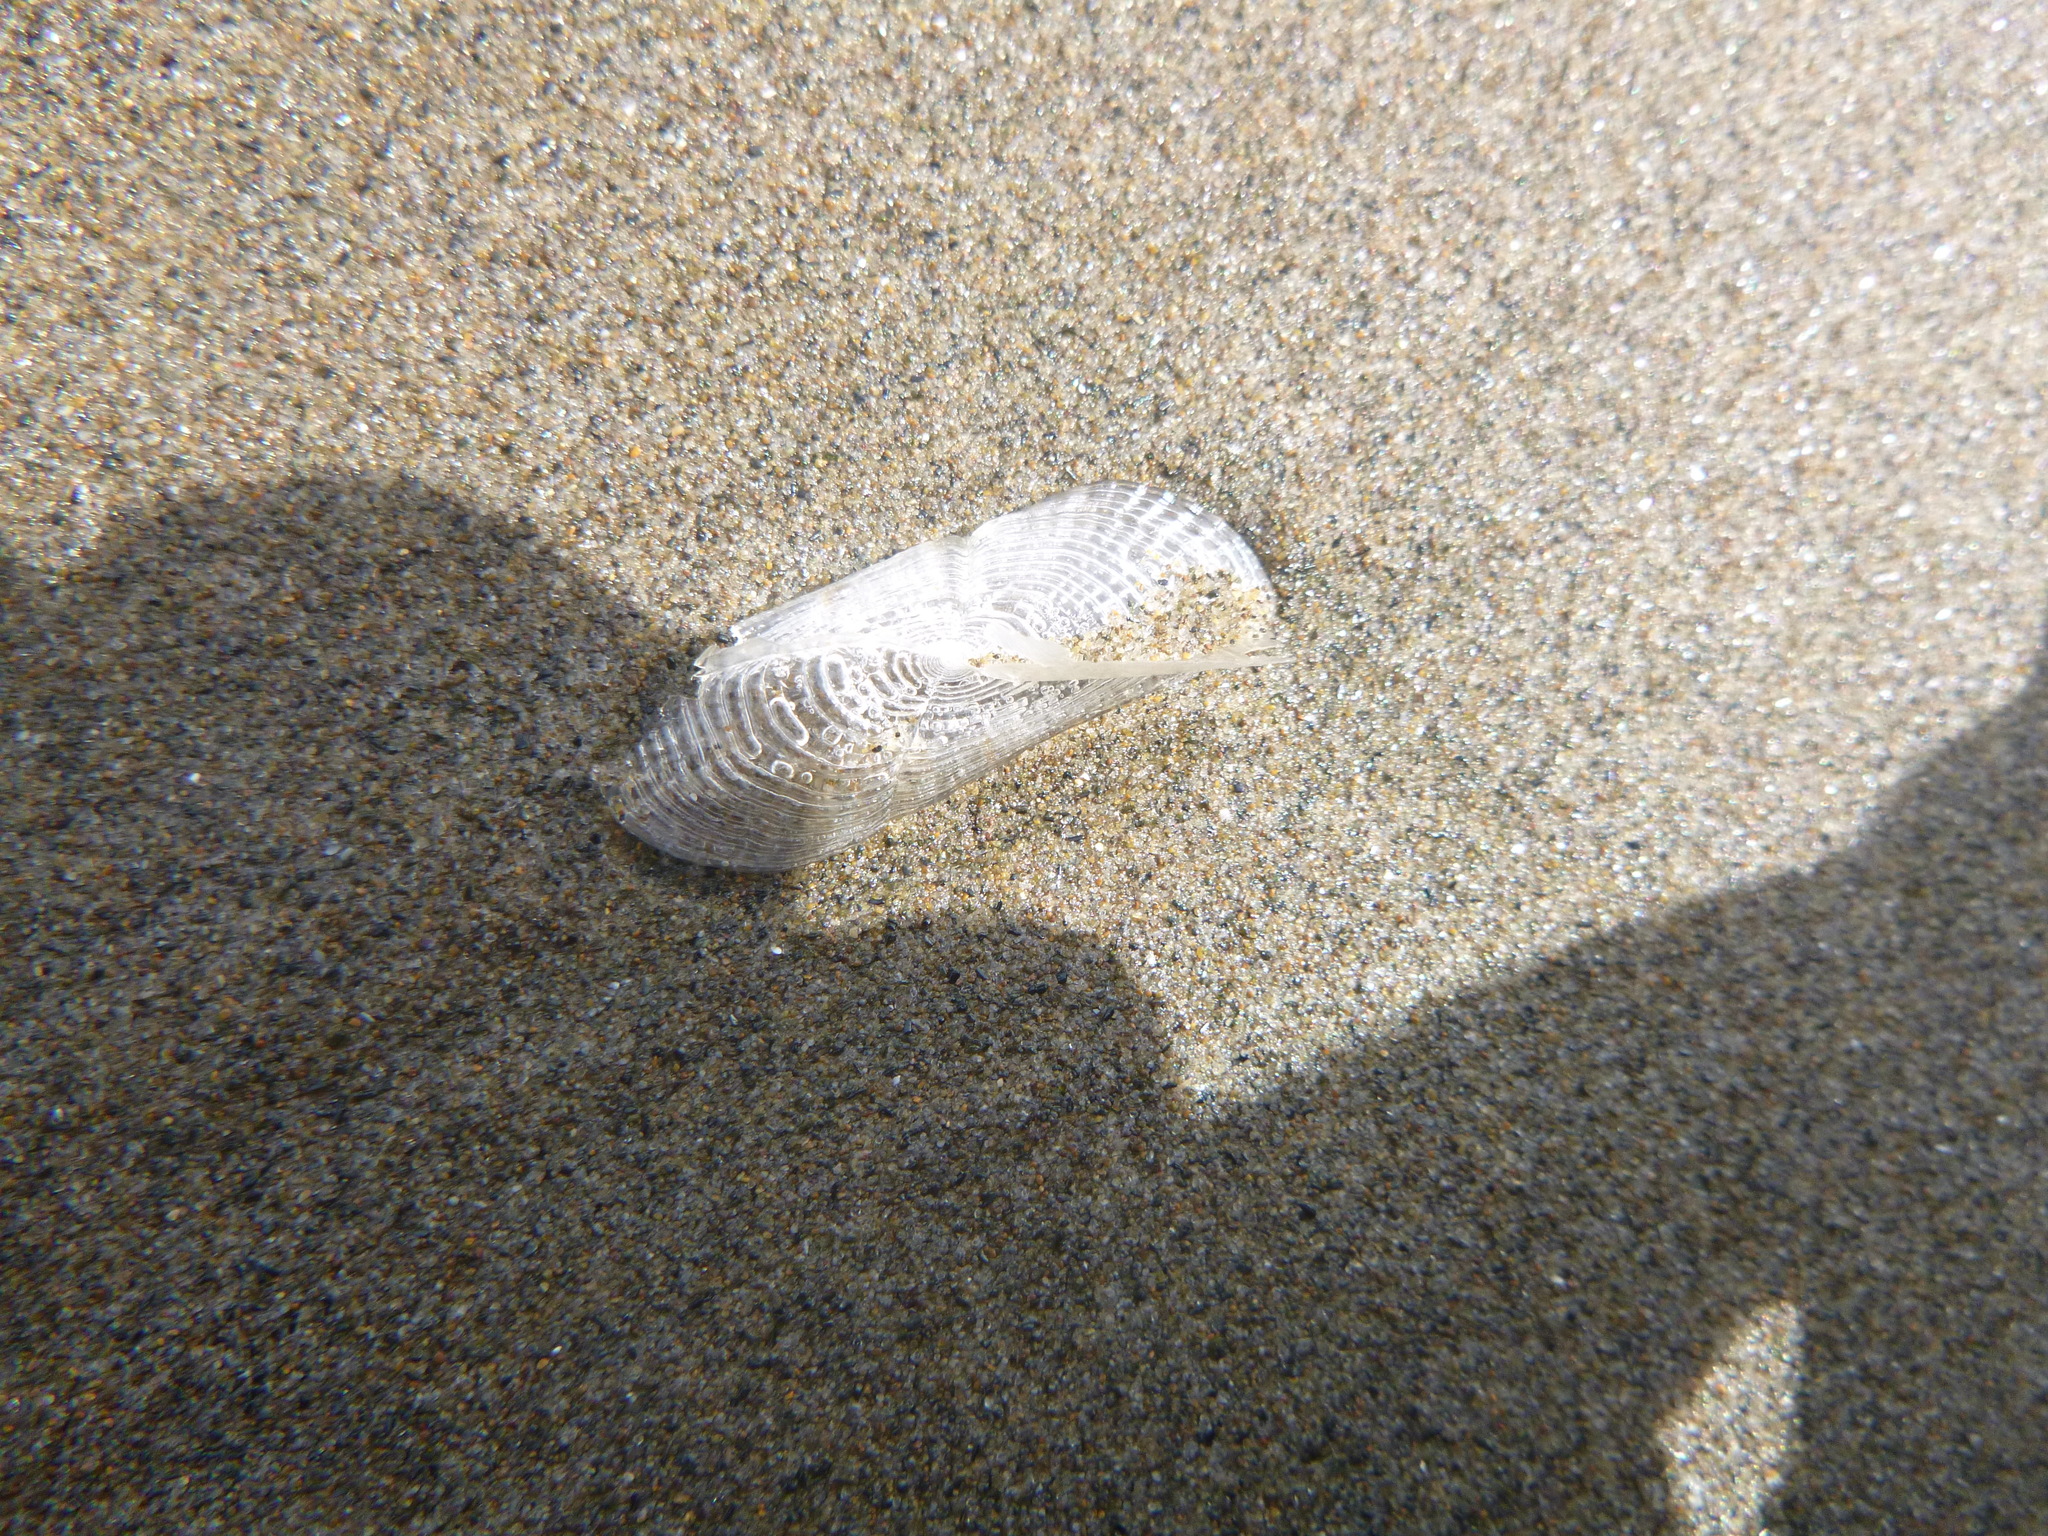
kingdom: Animalia
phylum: Cnidaria
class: Hydrozoa
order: Anthoathecata
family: Porpitidae
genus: Velella
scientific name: Velella velella
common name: By-the-wind-sailor
